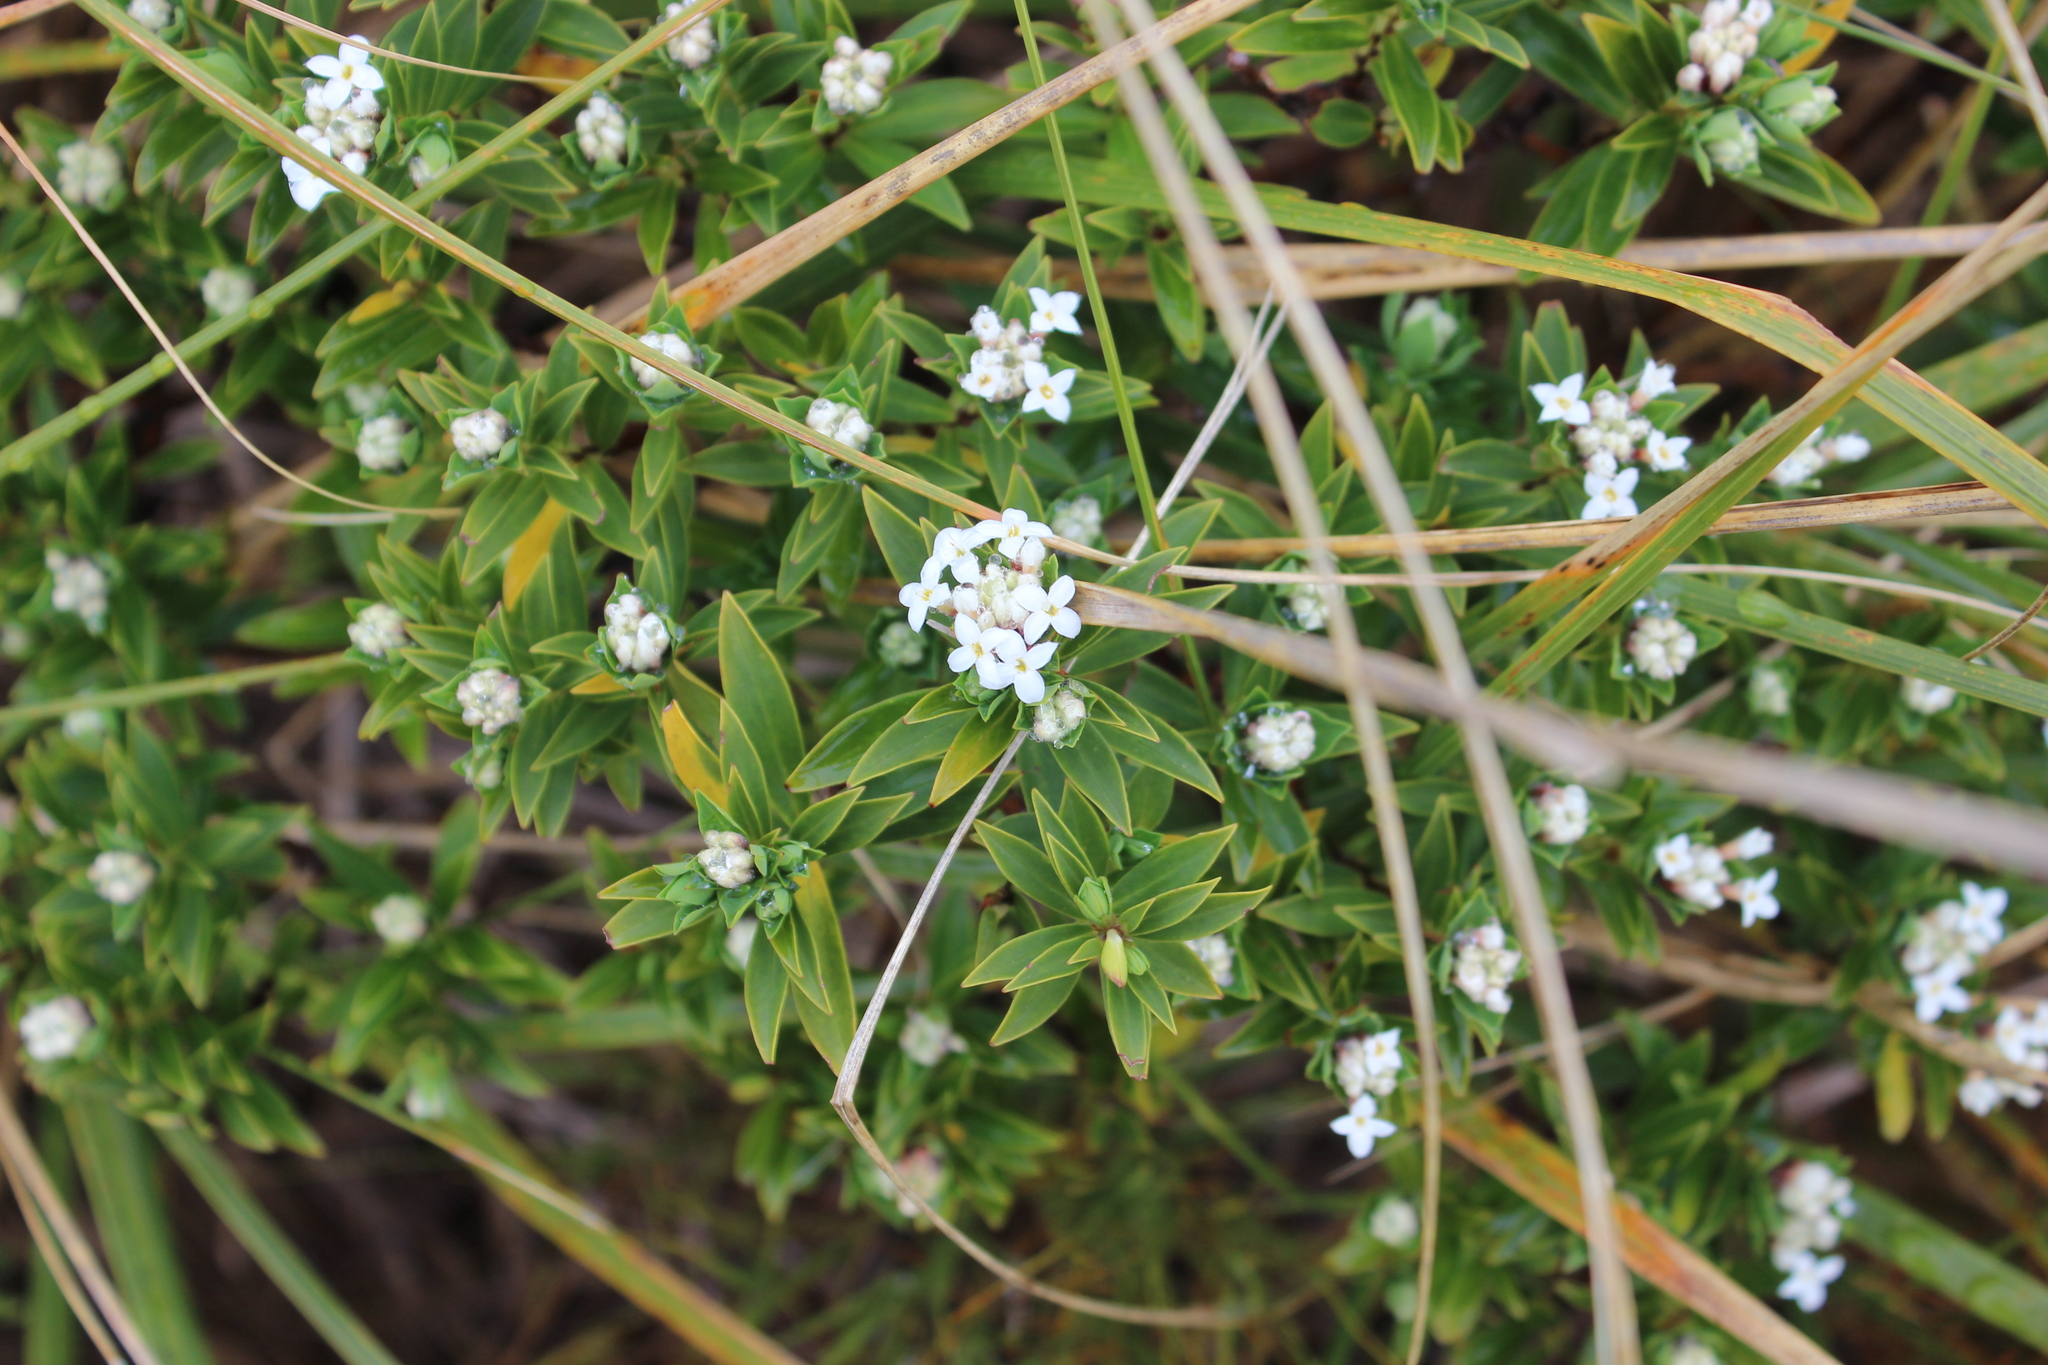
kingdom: Plantae
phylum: Tracheophyta
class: Magnoliopsida
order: Malvales
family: Thymelaeaceae
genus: Pimelea
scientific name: Pimelea gnidia
